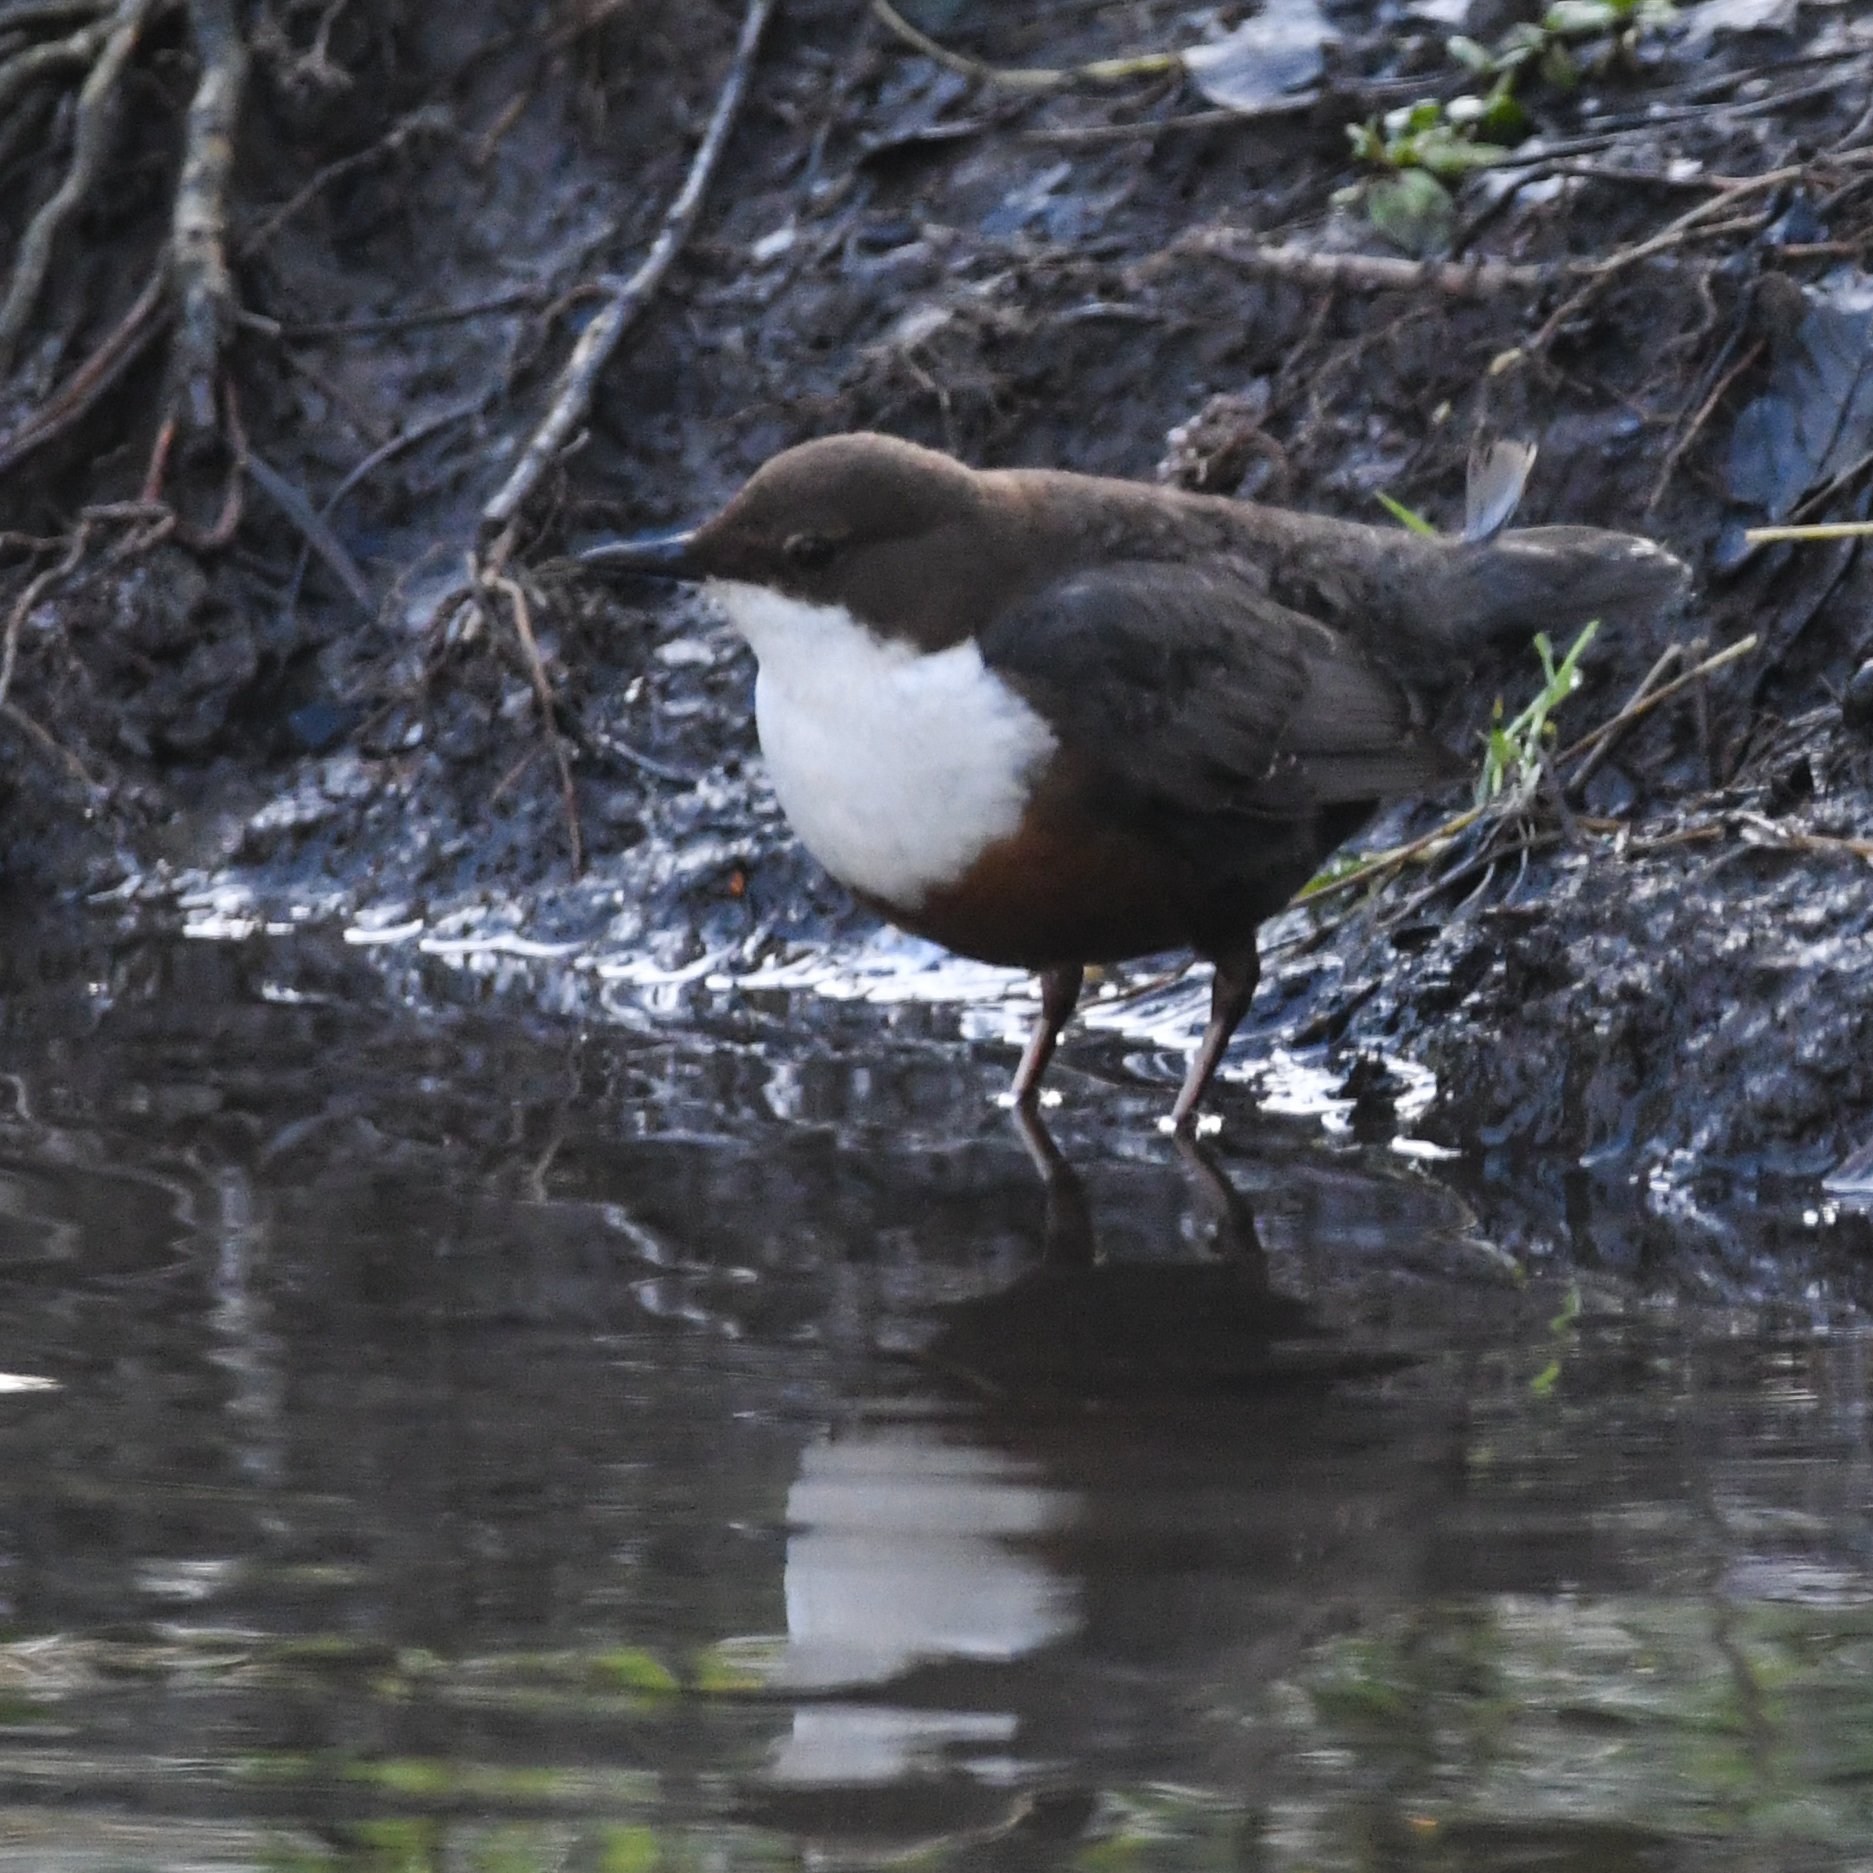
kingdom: Animalia
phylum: Chordata
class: Aves
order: Passeriformes
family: Cinclidae
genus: Cinclus
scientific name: Cinclus cinclus
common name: White-throated dipper
